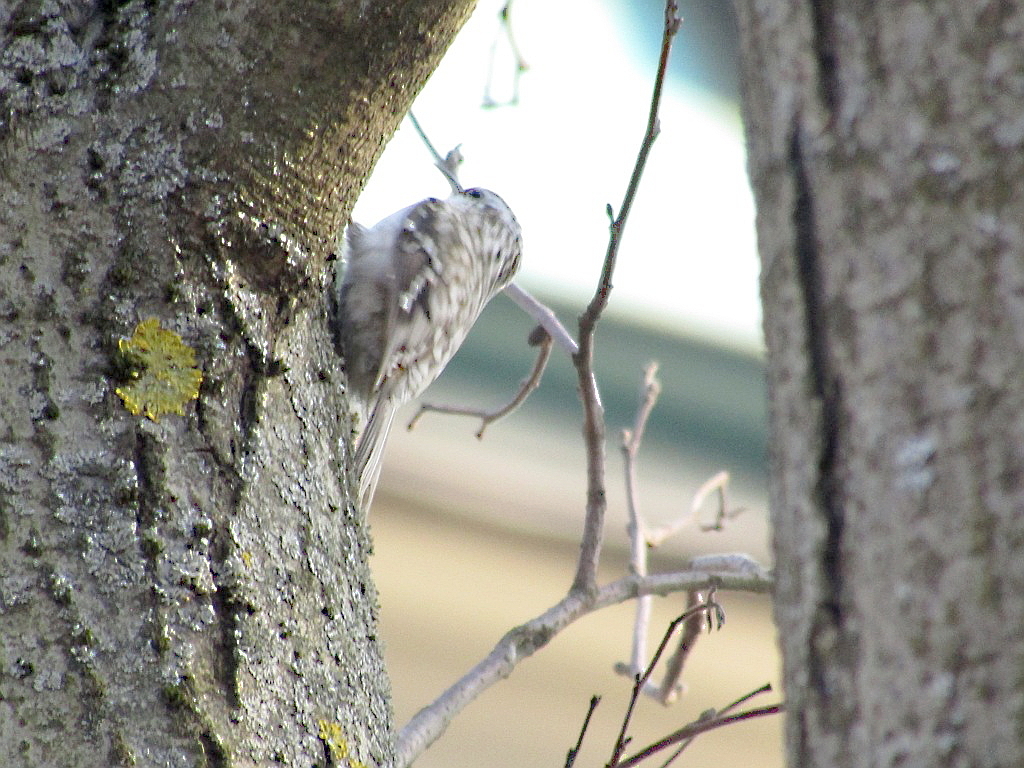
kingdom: Animalia
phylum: Chordata
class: Aves
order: Passeriformes
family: Certhiidae
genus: Certhia
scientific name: Certhia familiaris
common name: Eurasian treecreeper
